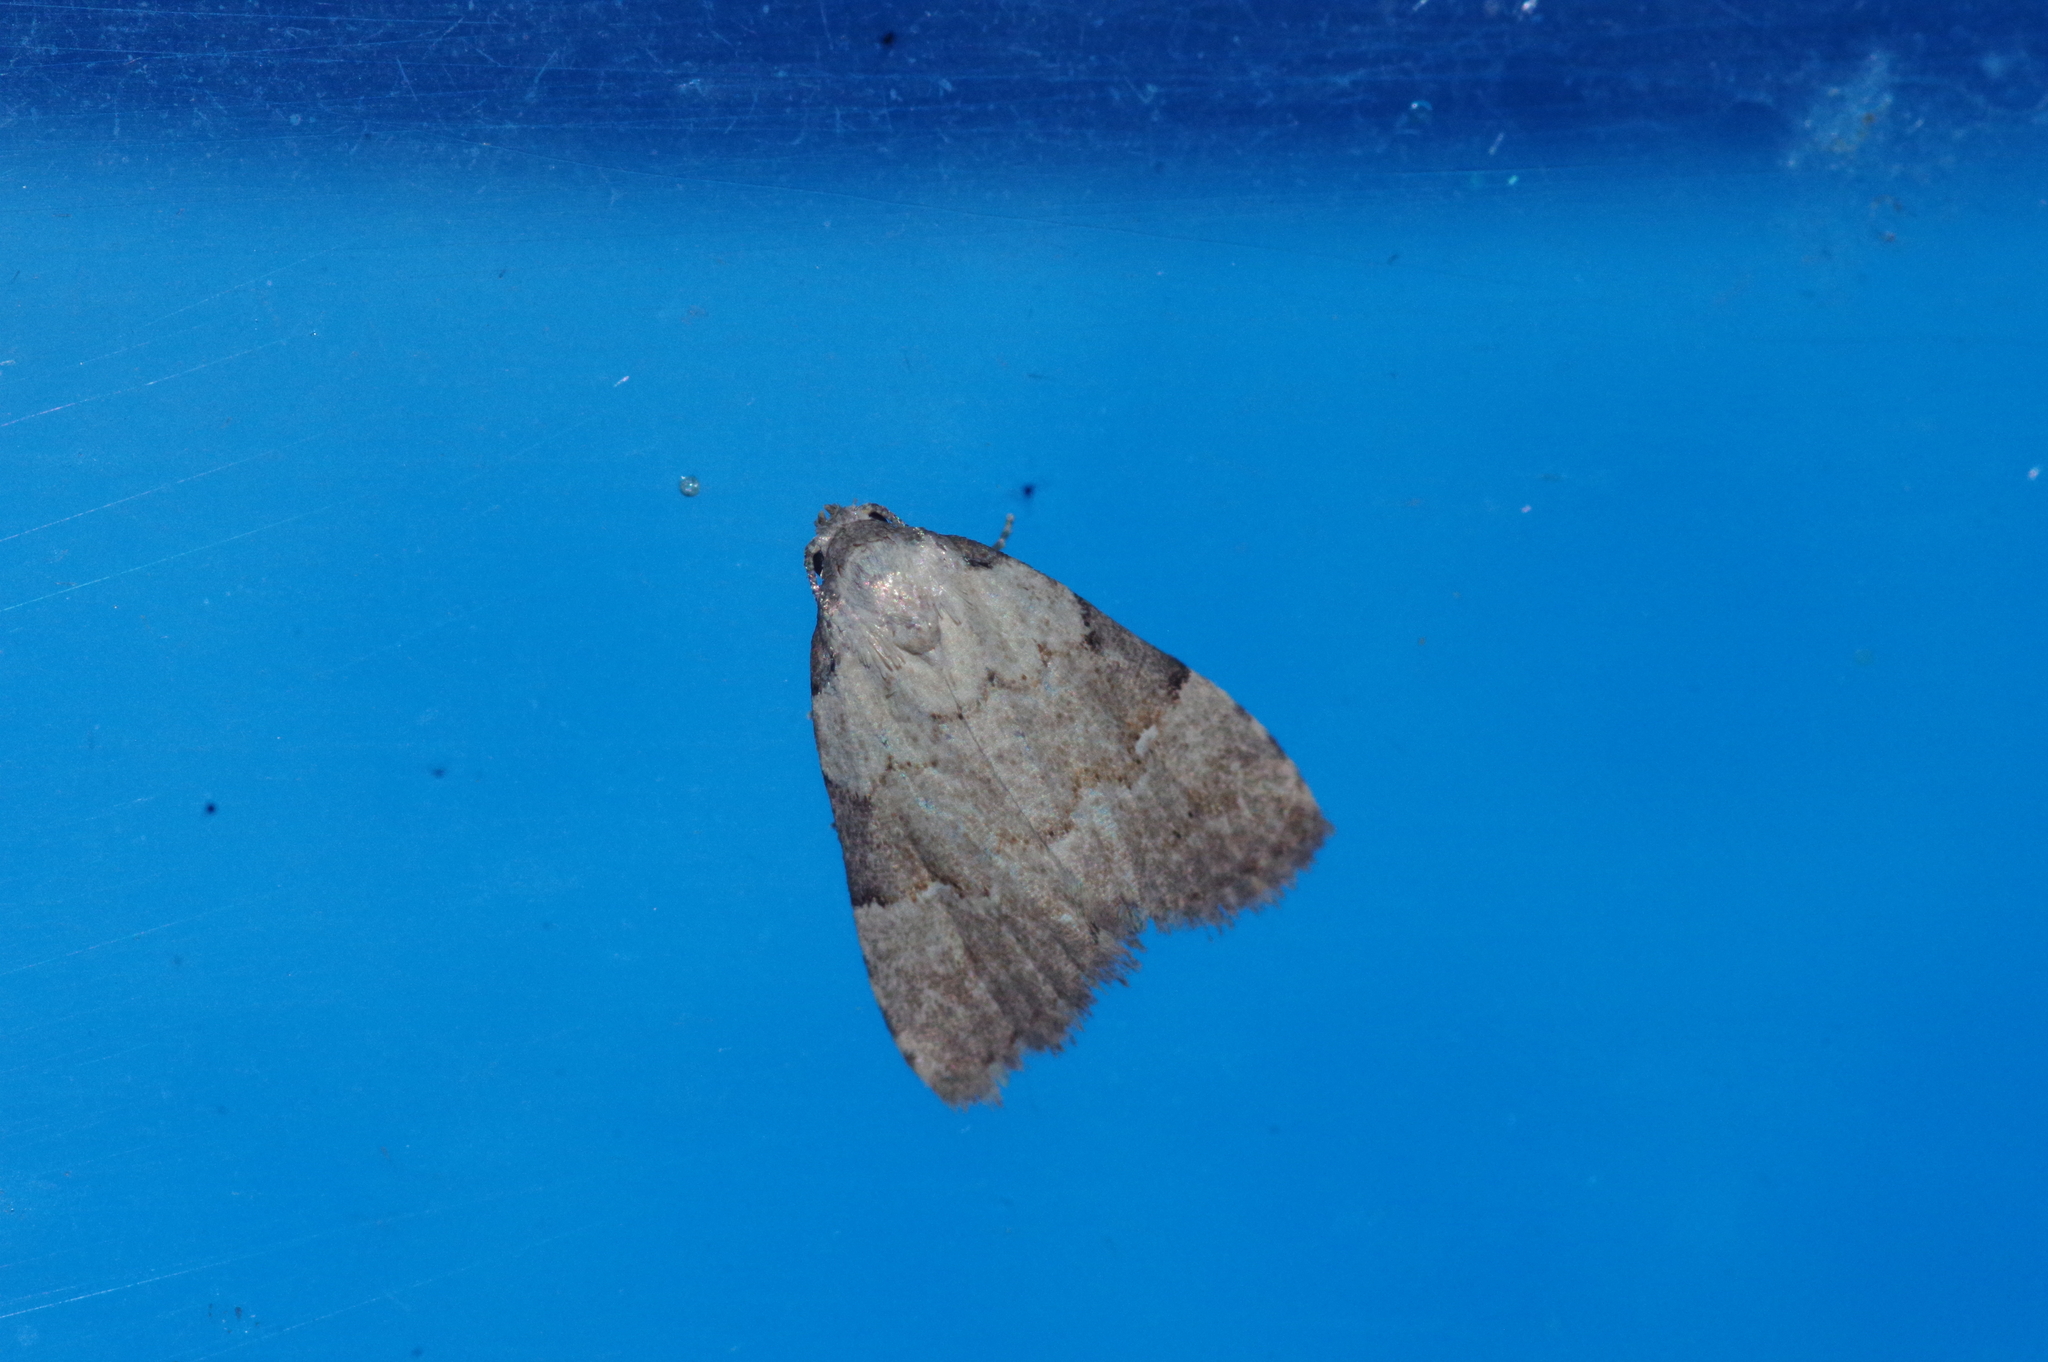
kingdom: Animalia
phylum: Arthropoda
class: Insecta
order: Lepidoptera
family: Erebidae
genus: Mimachrostia
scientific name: Mimachrostia fasciata
